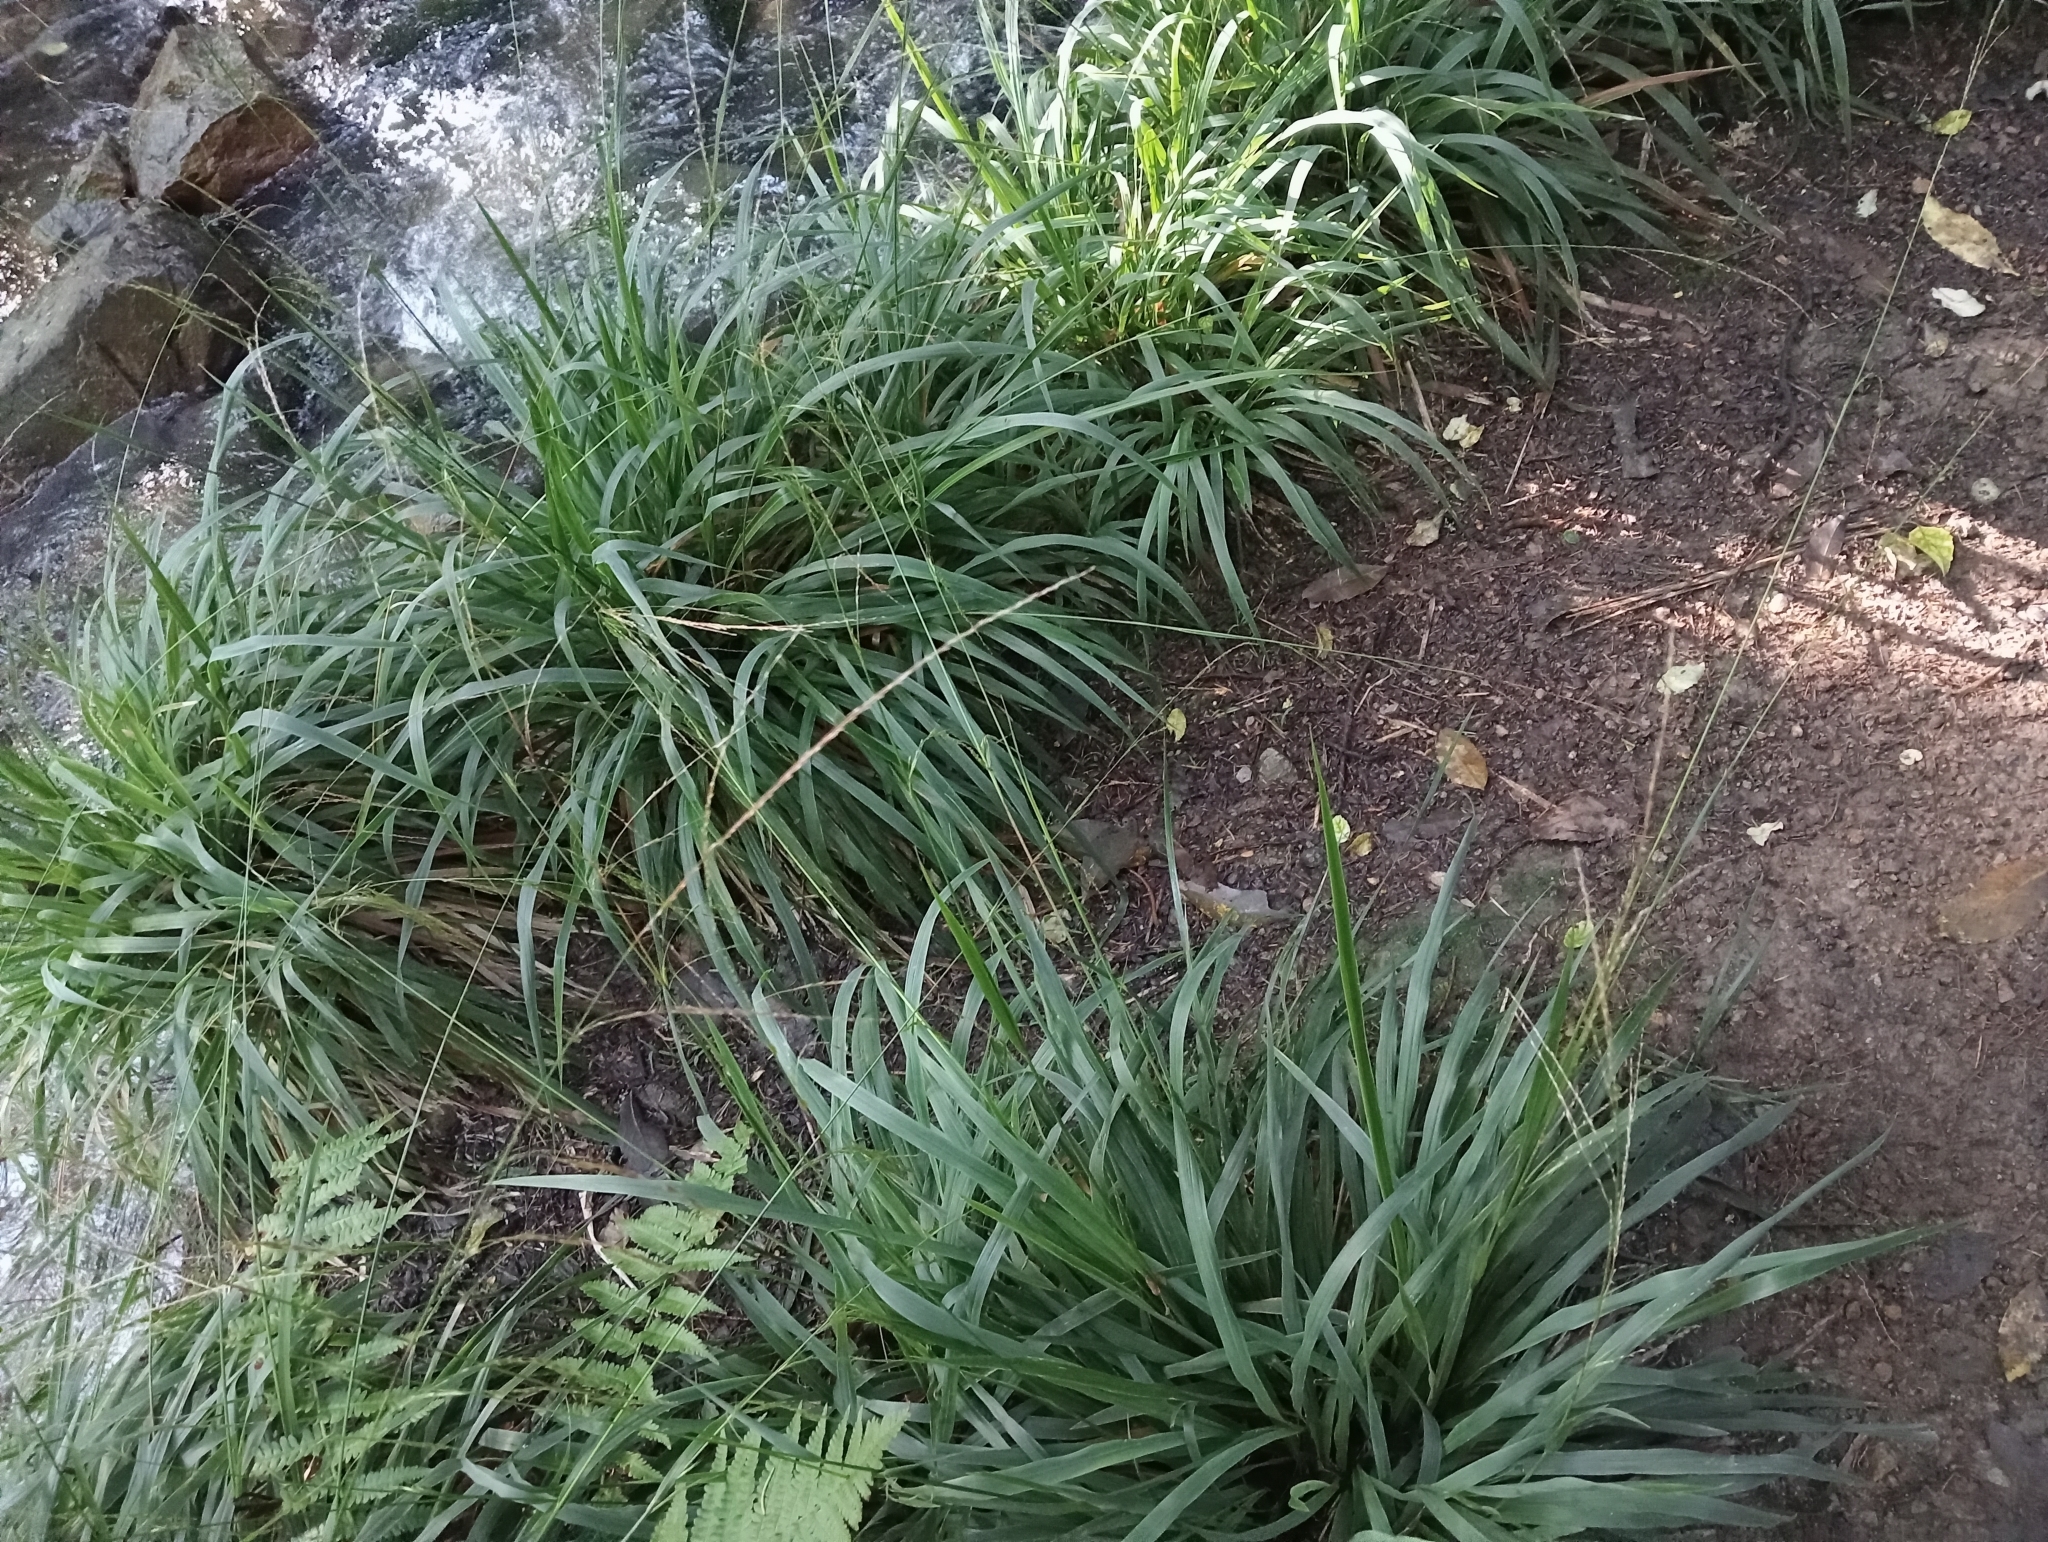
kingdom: Plantae
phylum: Tracheophyta
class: Liliopsida
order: Poales
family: Poaceae
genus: Ehrharta
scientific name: Ehrharta diplax
